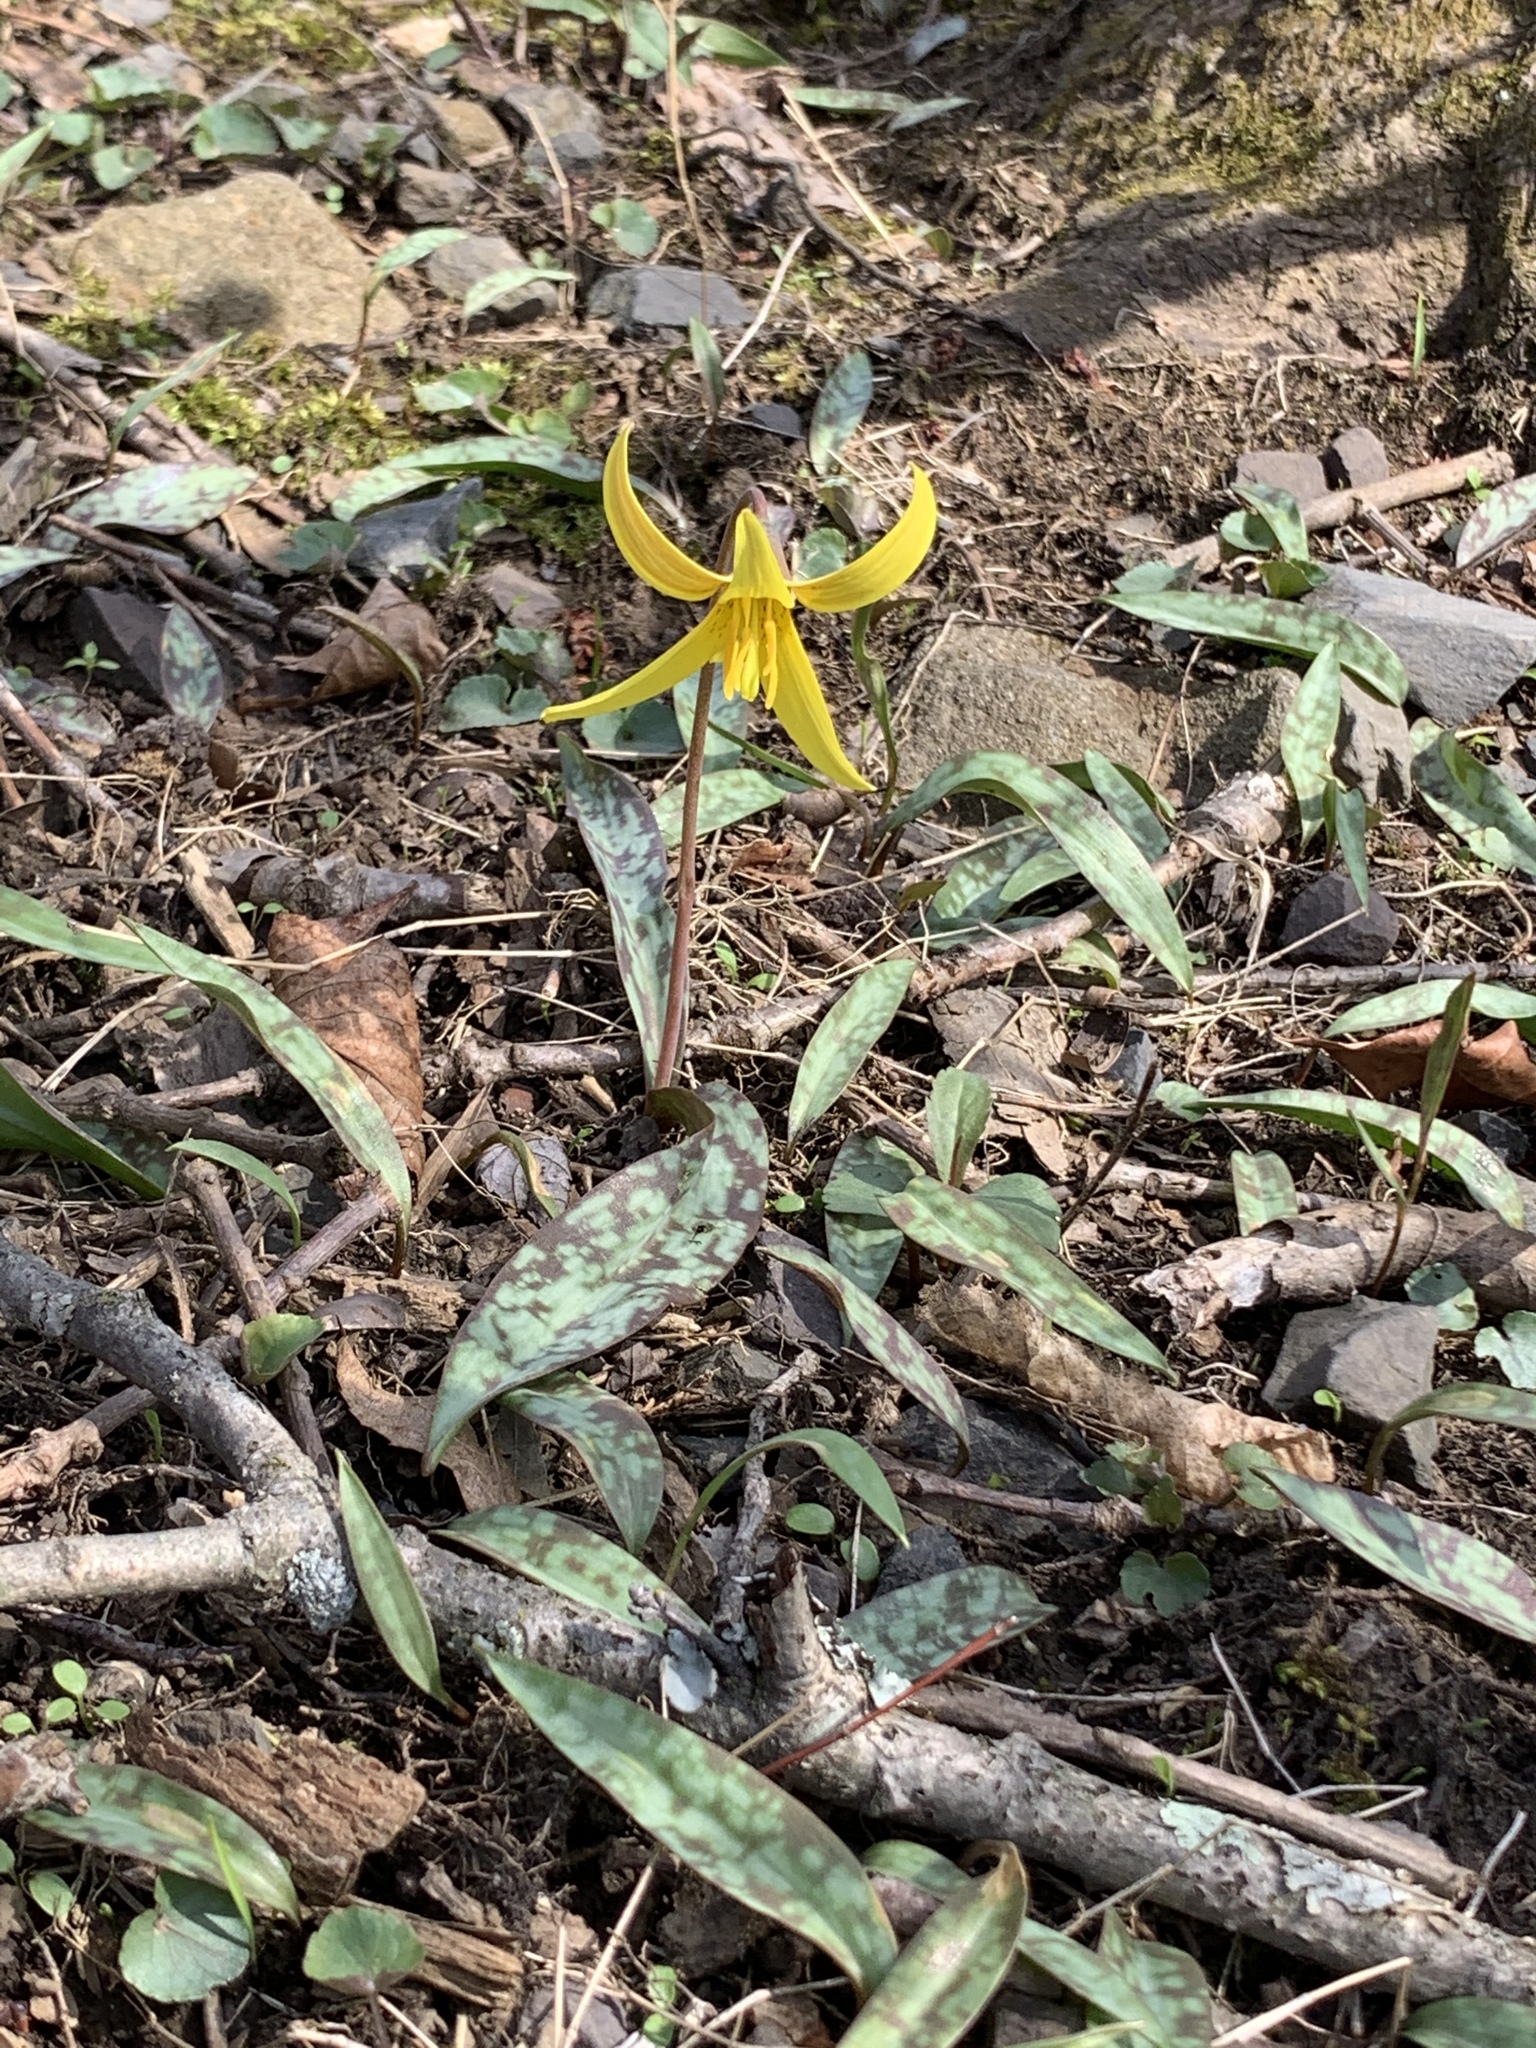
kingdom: Plantae
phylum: Tracheophyta
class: Liliopsida
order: Liliales
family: Liliaceae
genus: Erythronium
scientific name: Erythronium americanum
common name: Yellow adder's-tongue
